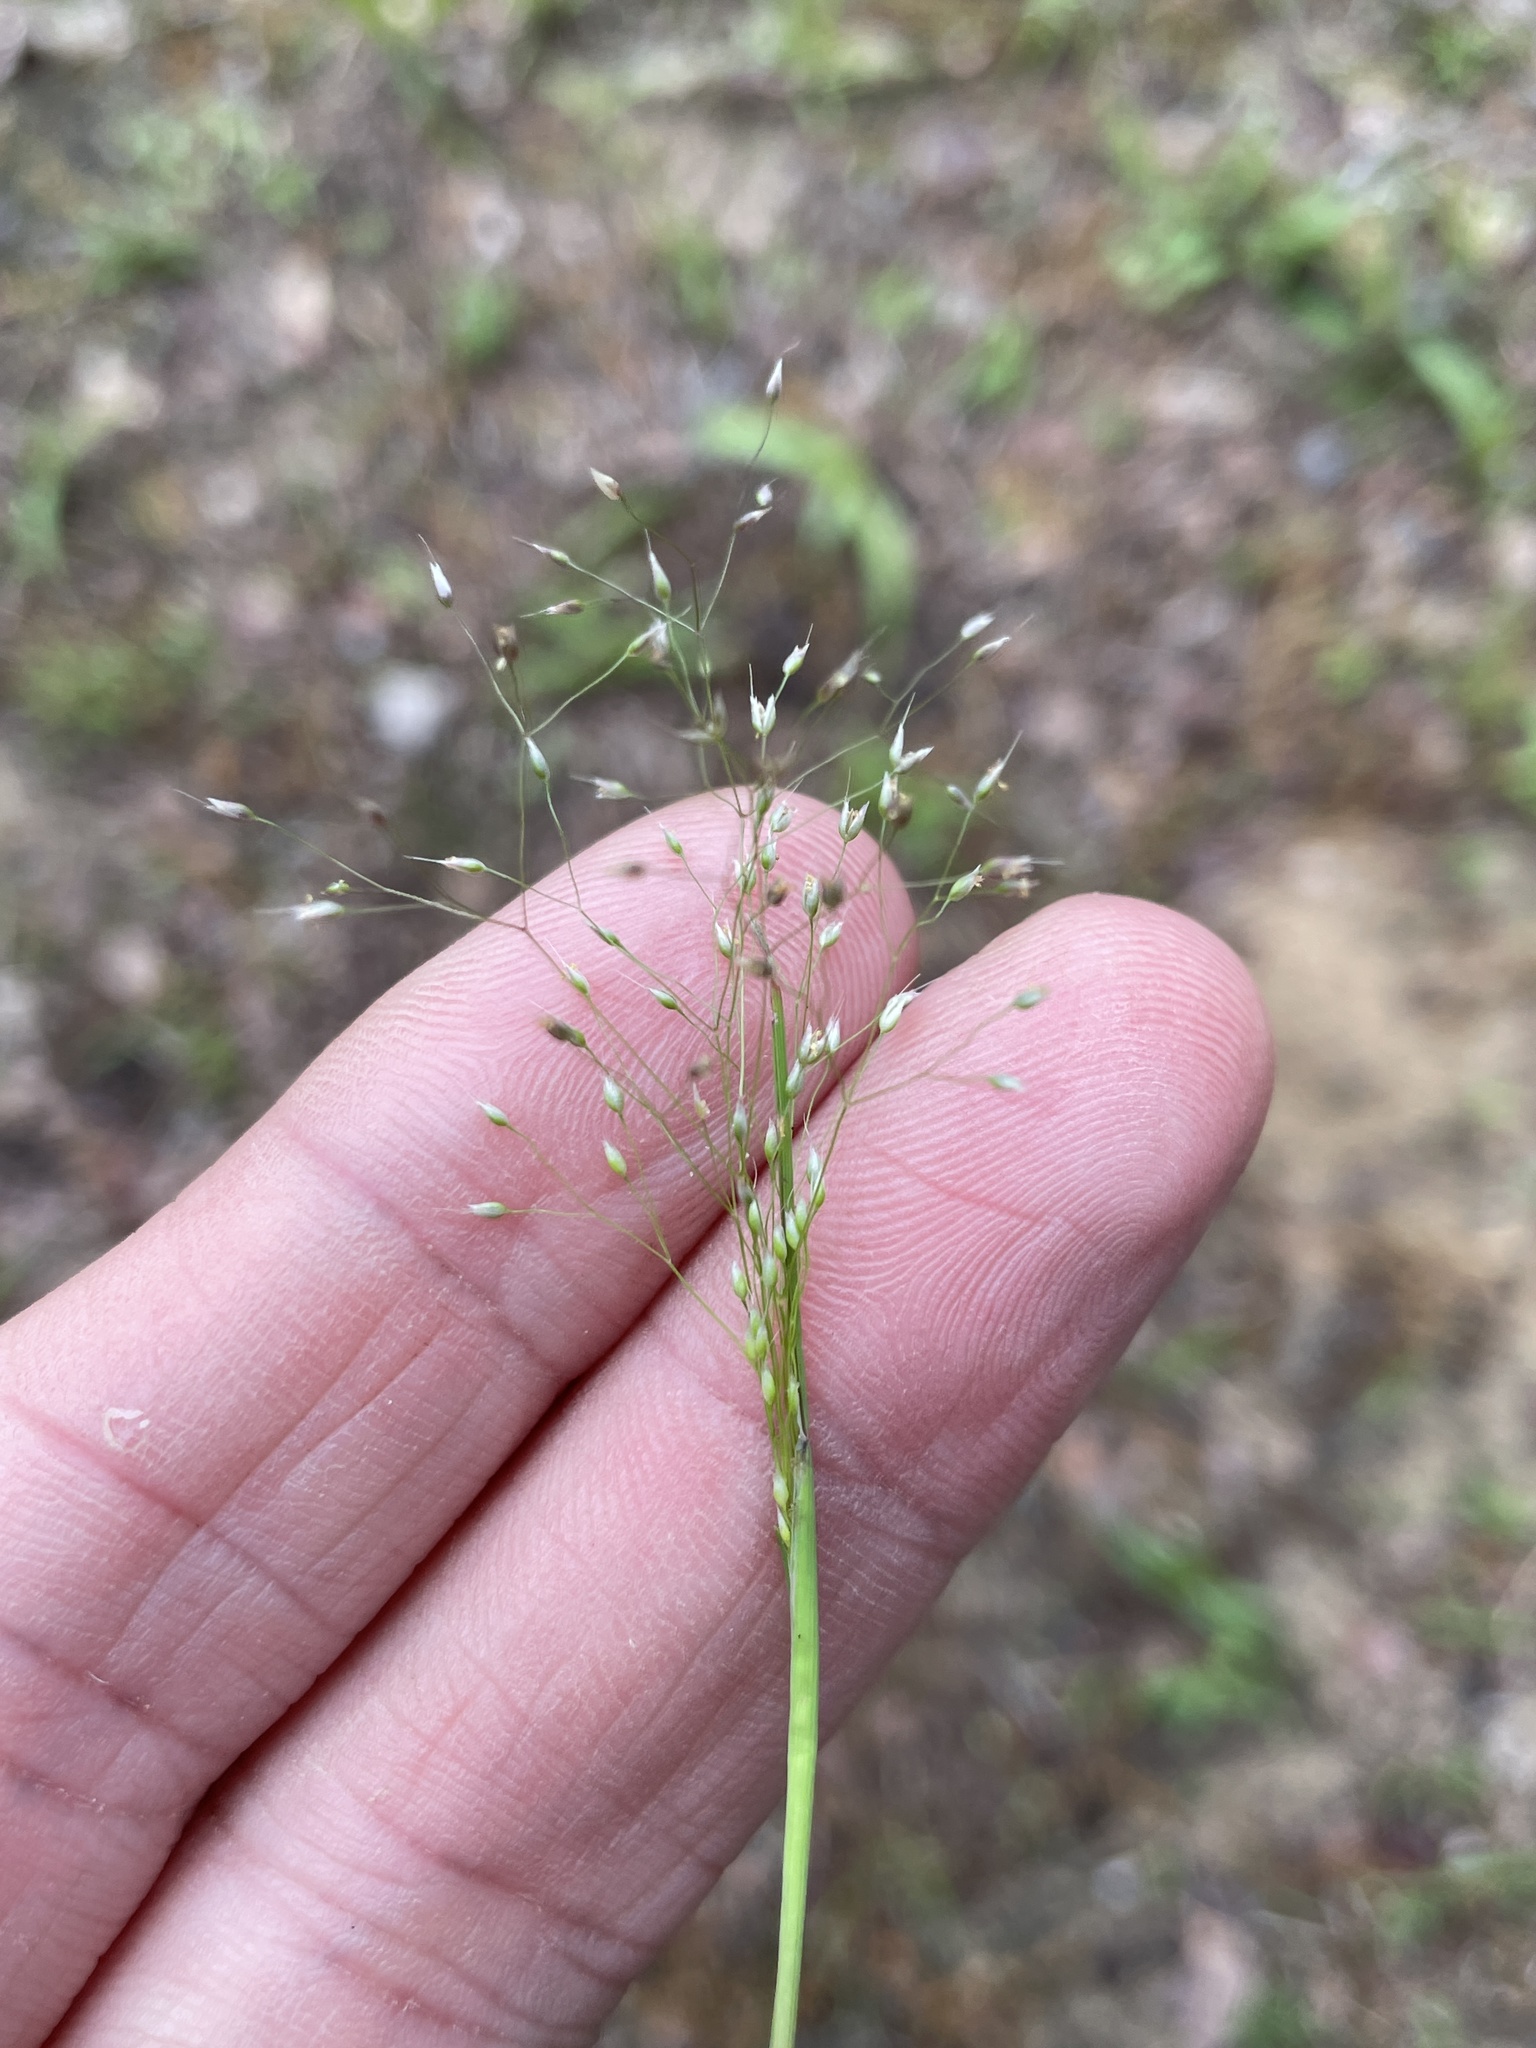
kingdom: Plantae
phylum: Tracheophyta
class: Liliopsida
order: Poales
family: Poaceae
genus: Aira
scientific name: Aira caryophyllea
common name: Silver hairgrass
